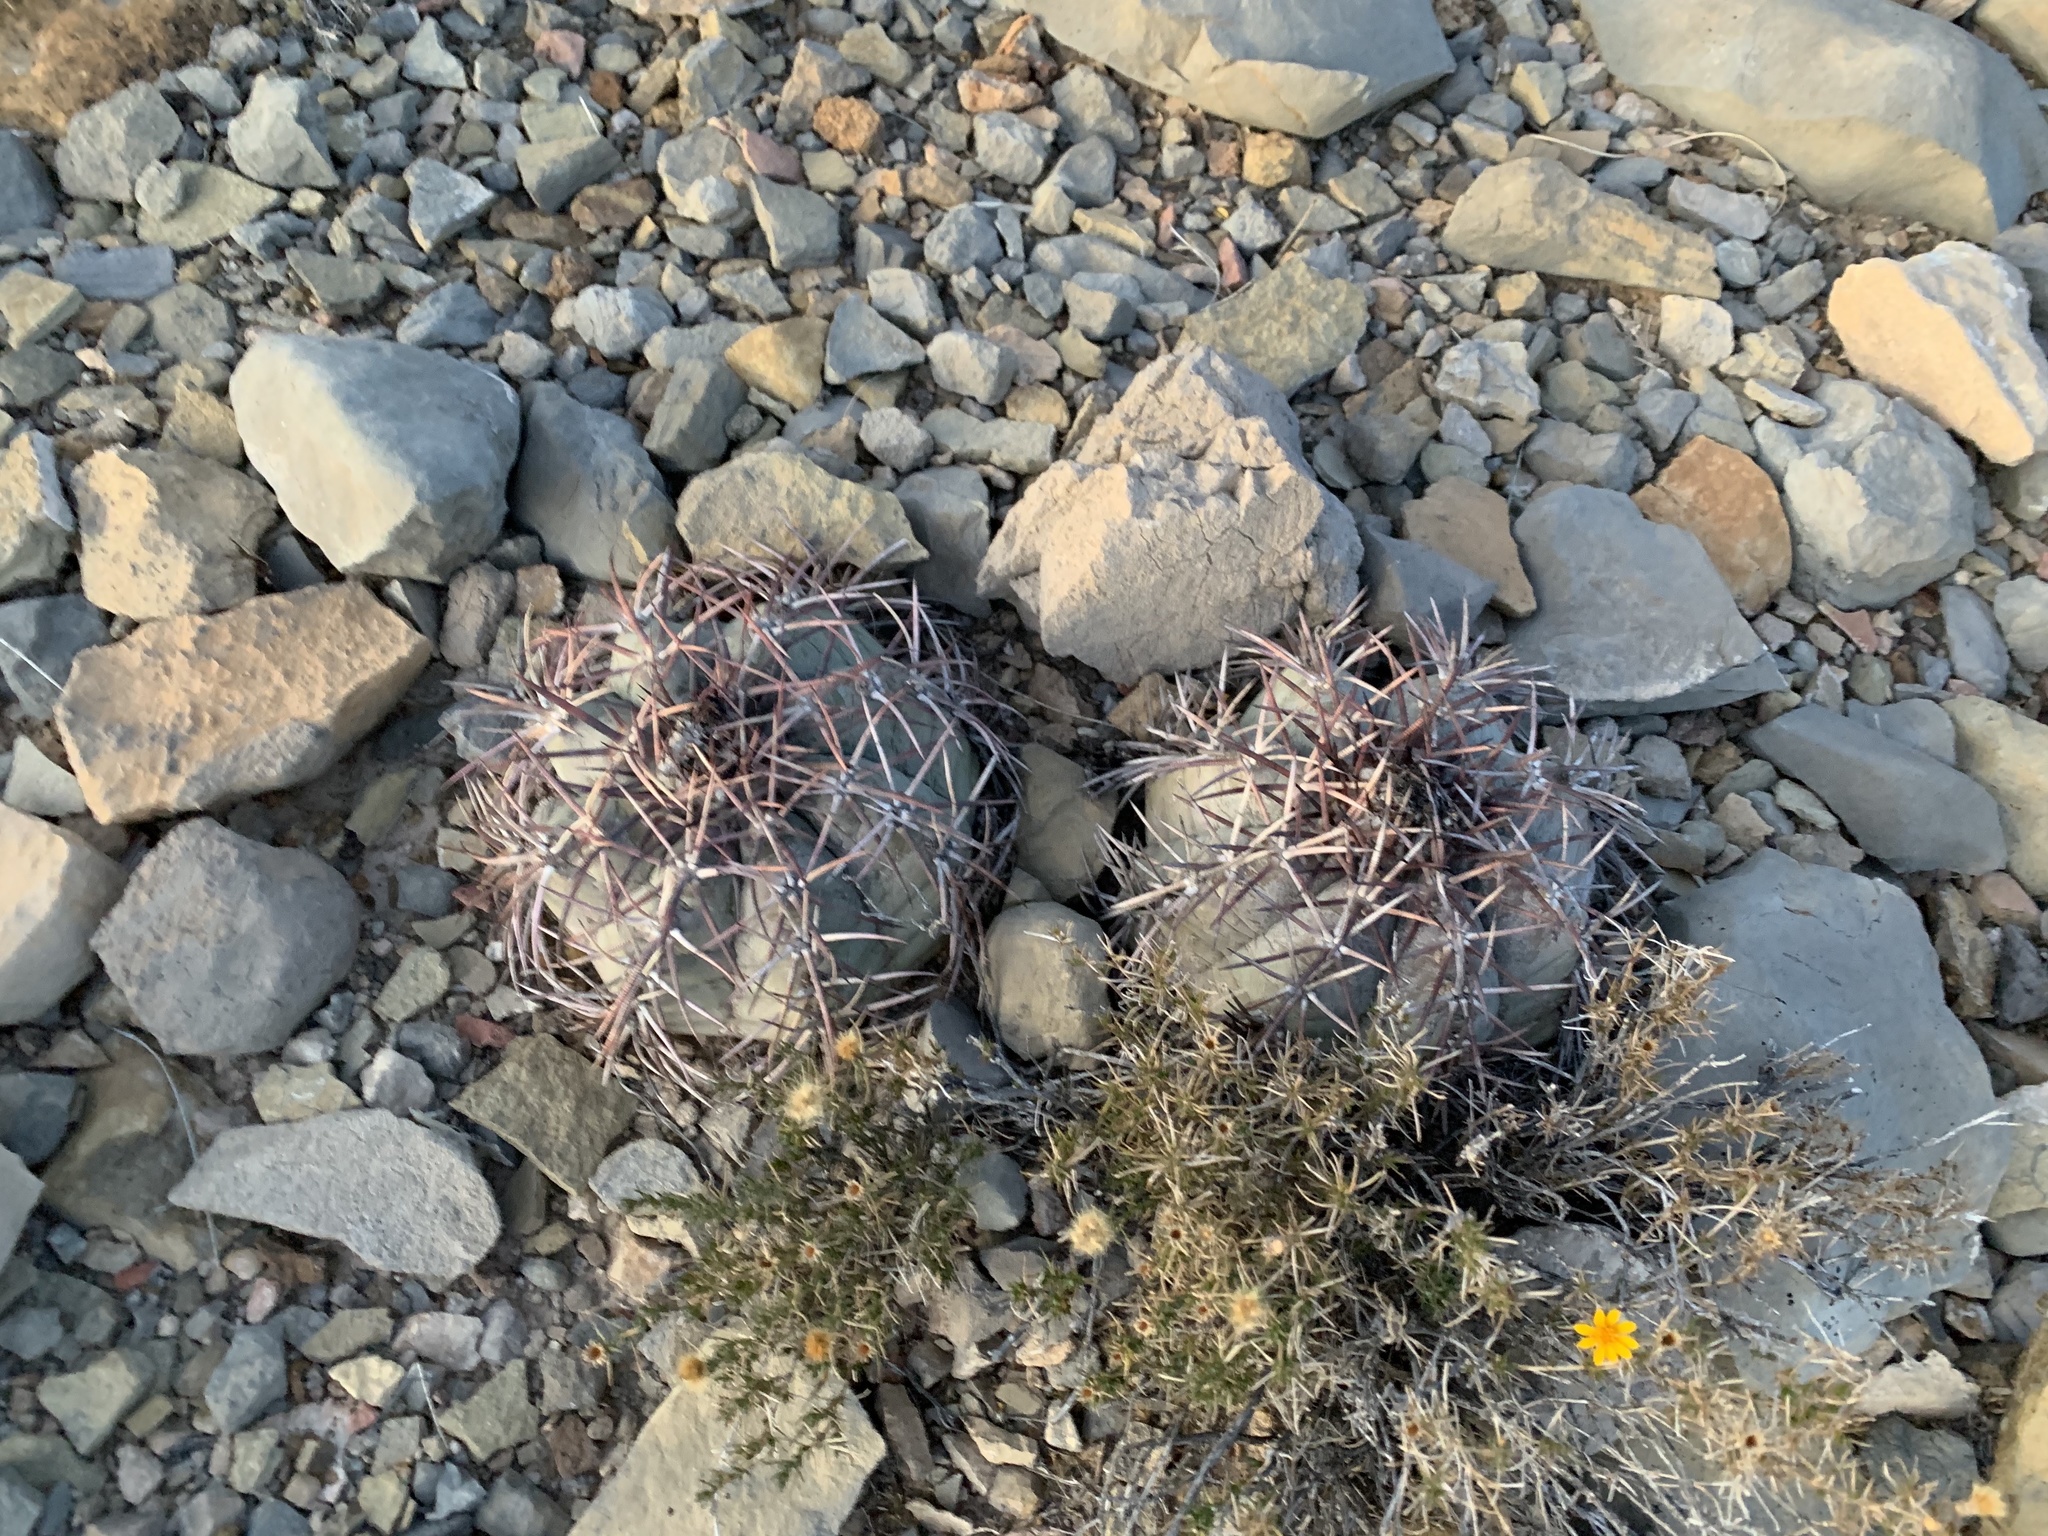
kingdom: Plantae
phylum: Tracheophyta
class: Magnoliopsida
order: Caryophyllales
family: Cactaceae
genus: Echinocactus
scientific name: Echinocactus horizonthalonius
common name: Devilshead
